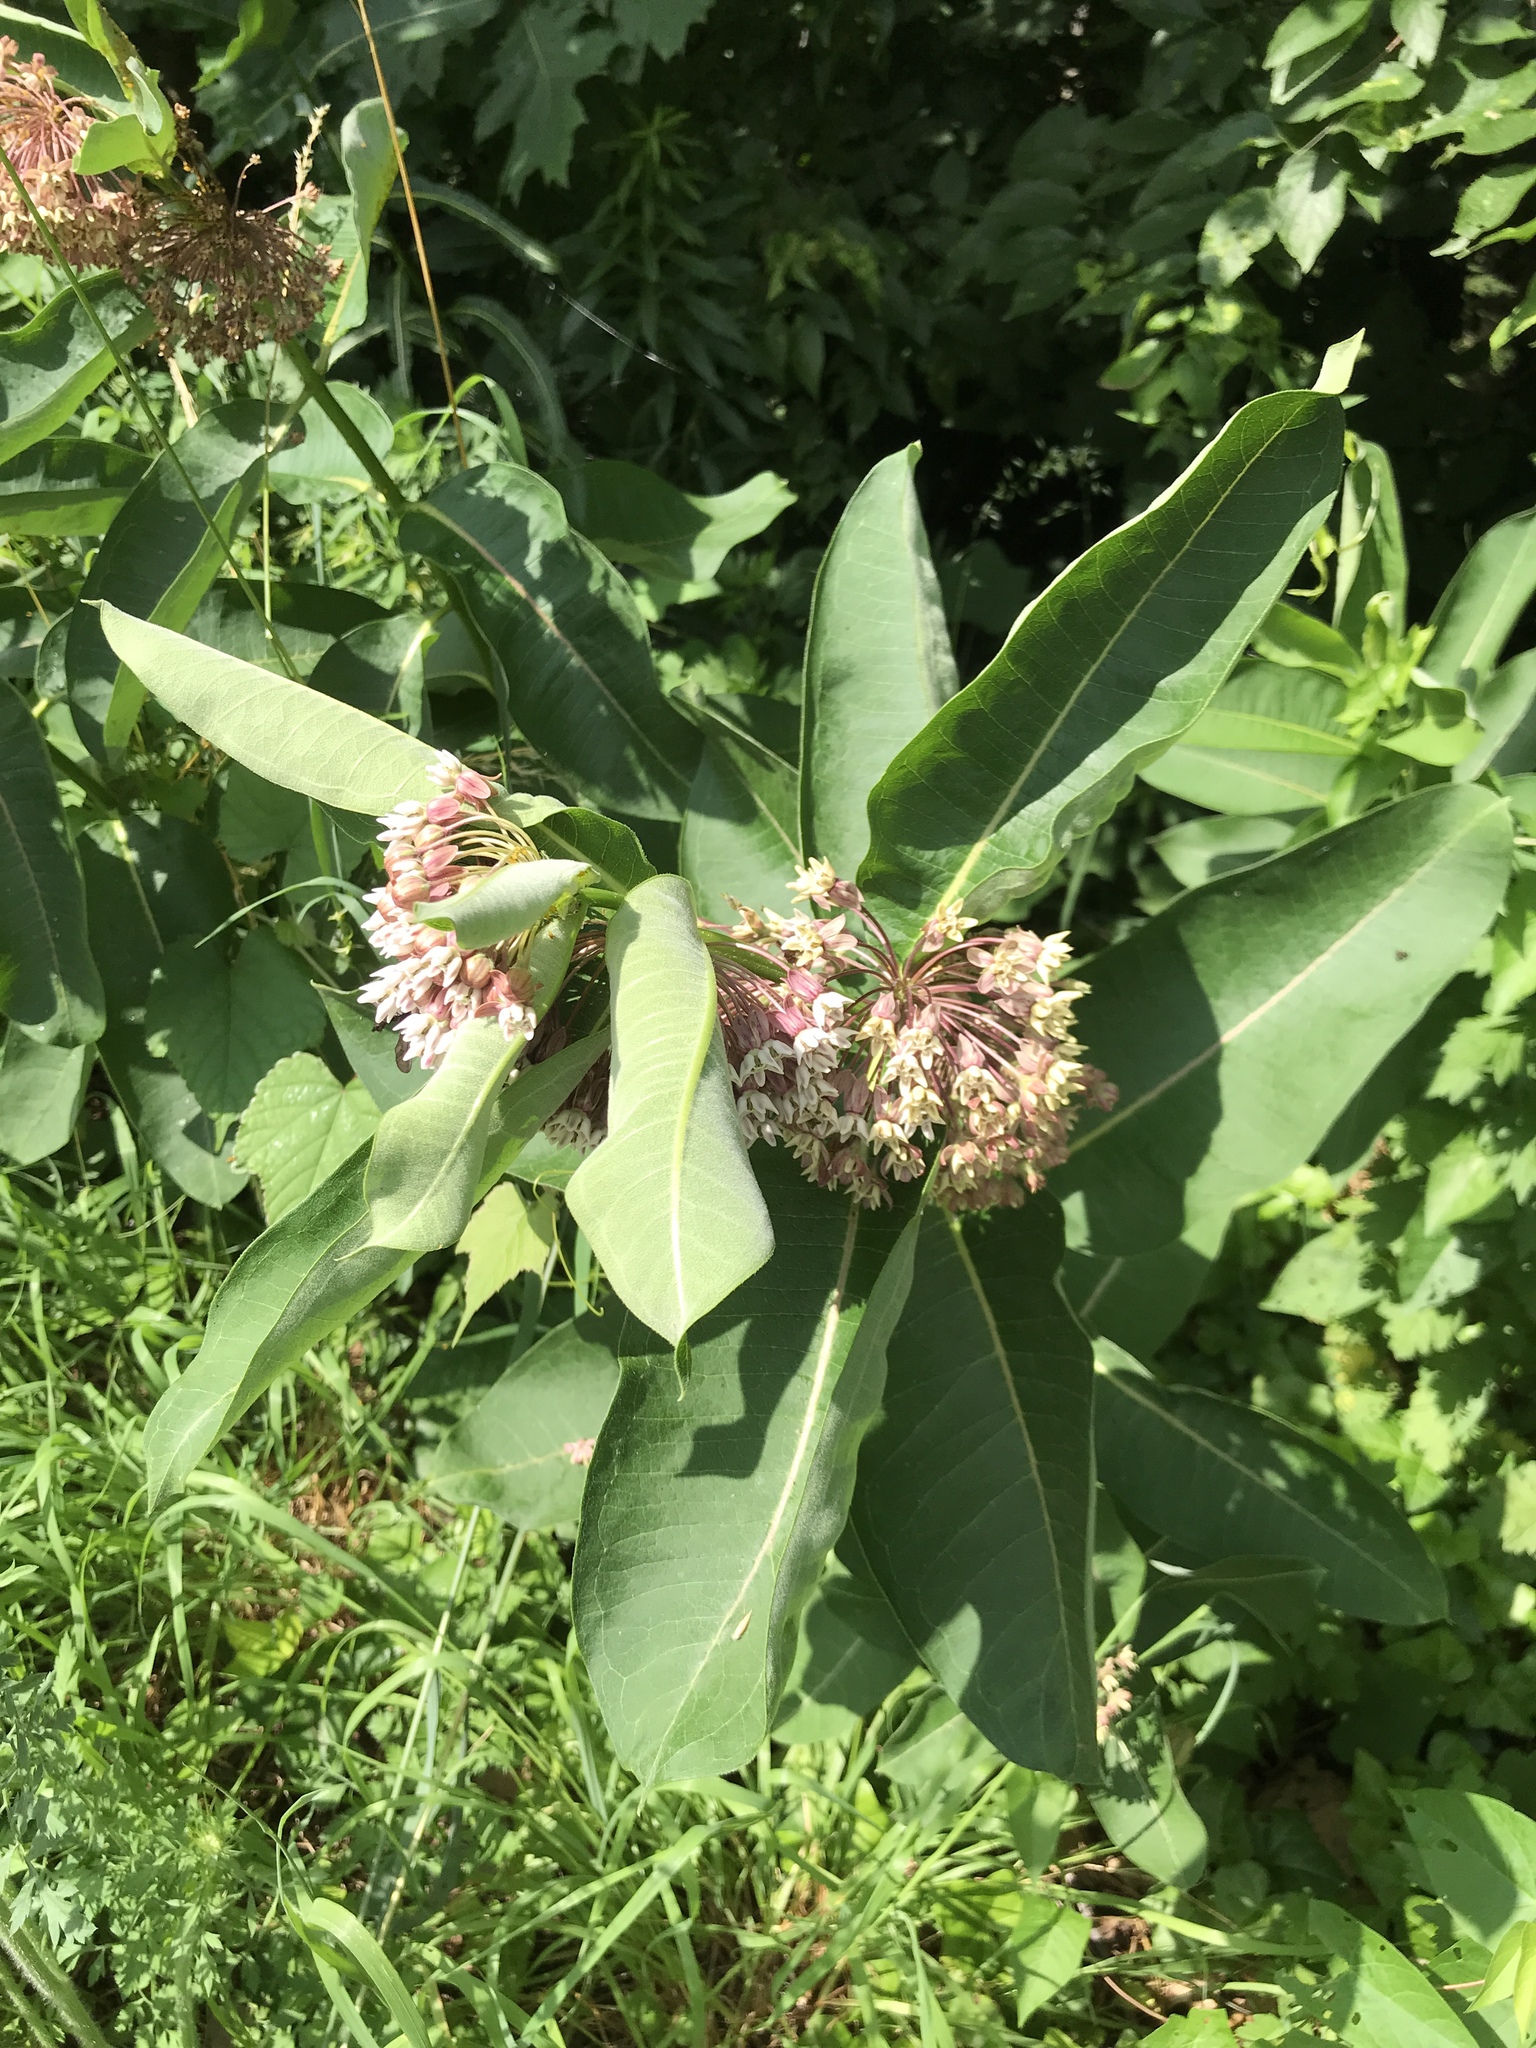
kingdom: Plantae
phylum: Tracheophyta
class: Magnoliopsida
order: Gentianales
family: Apocynaceae
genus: Asclepias
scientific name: Asclepias syriaca
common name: Common milkweed
